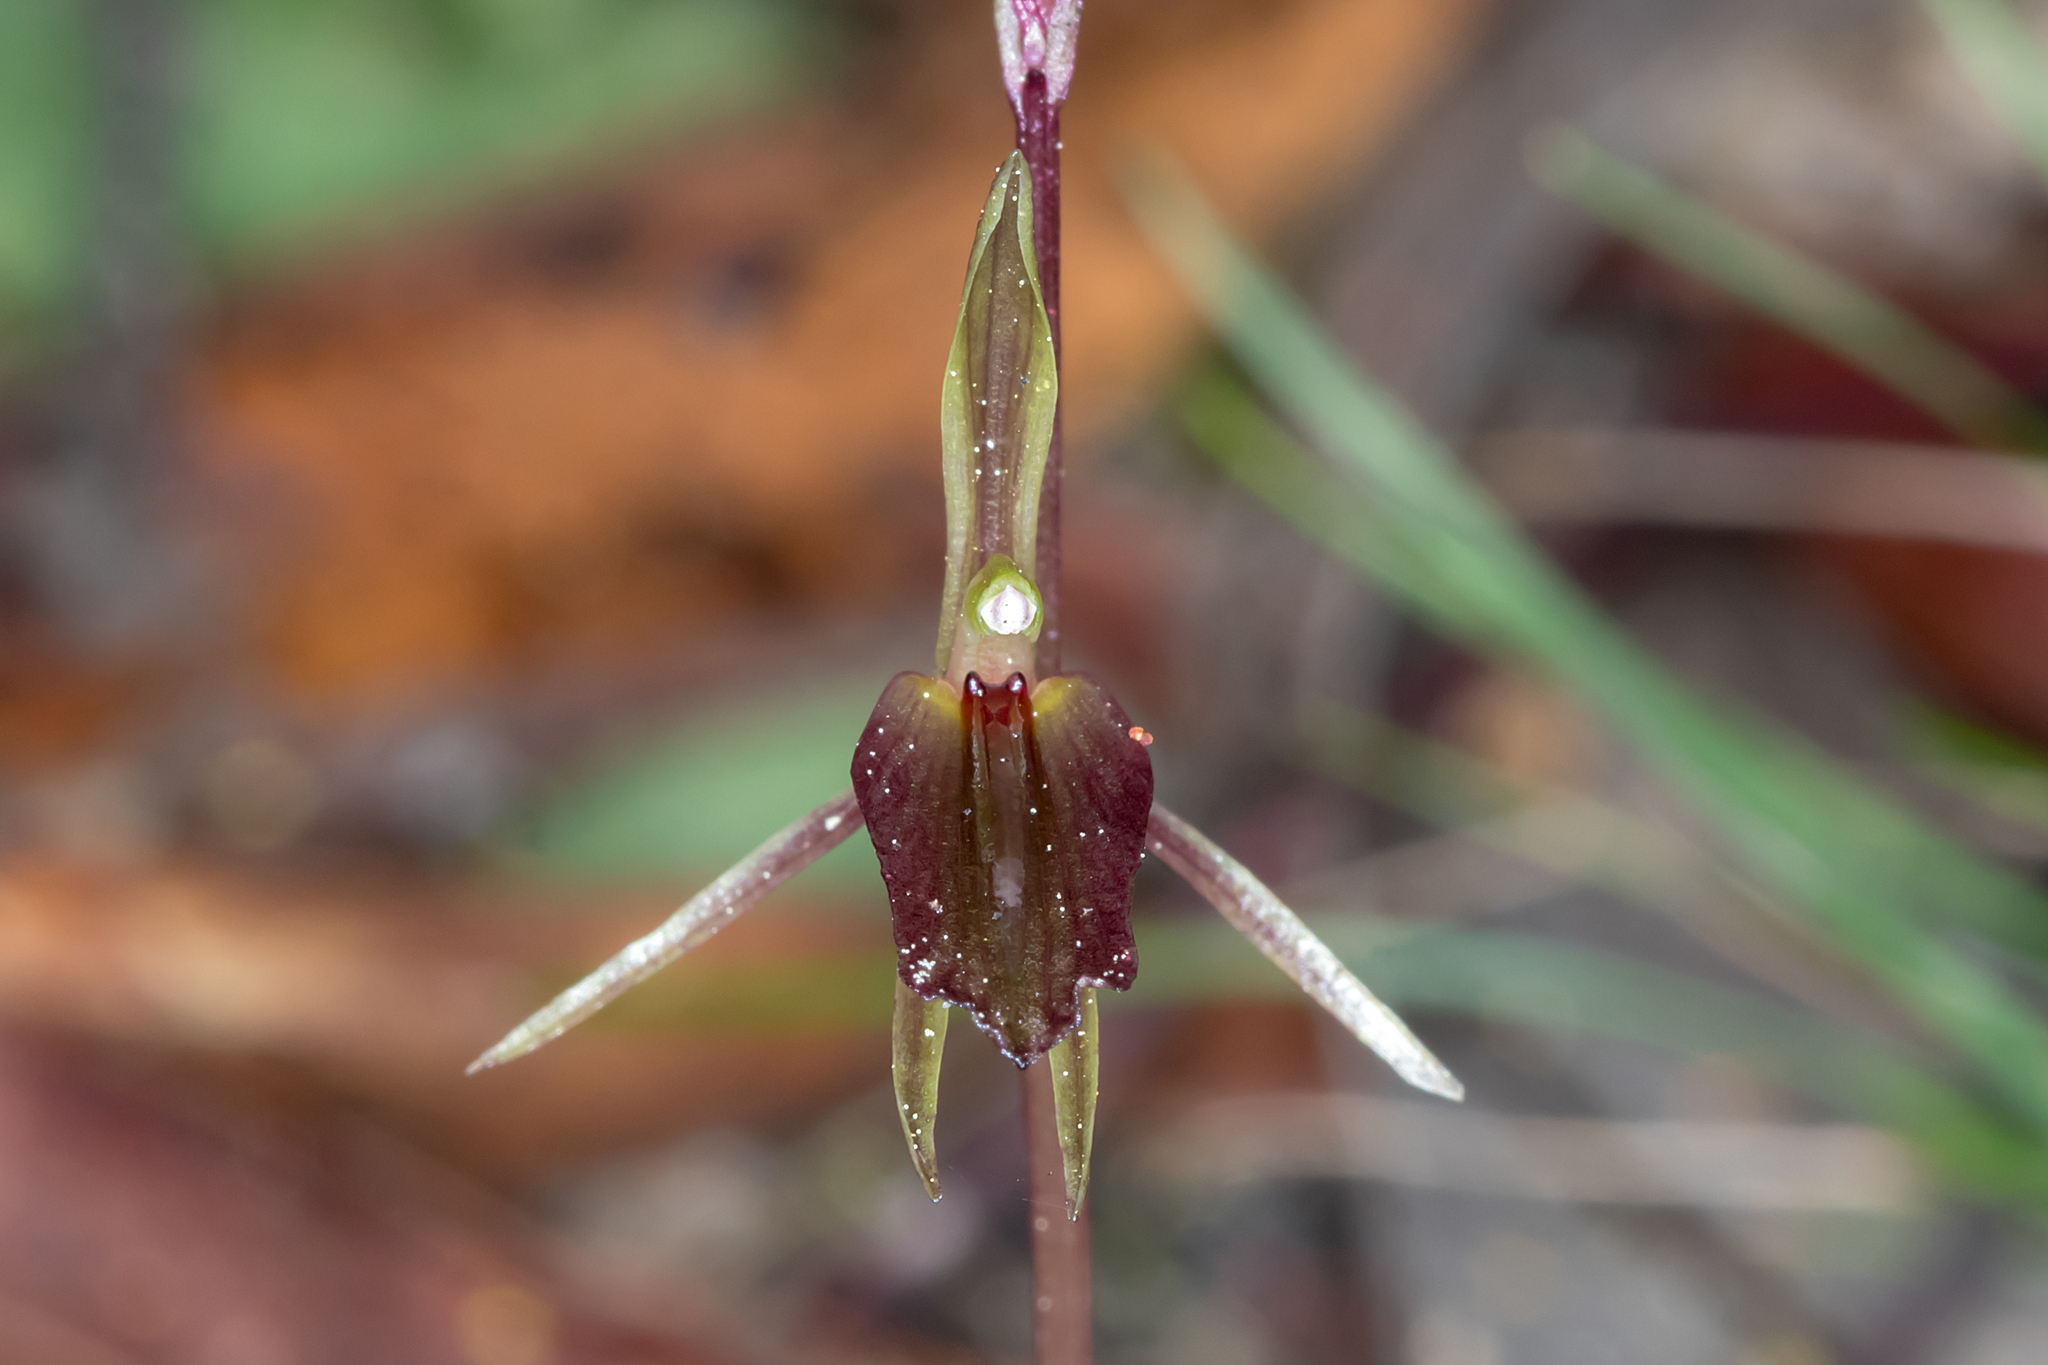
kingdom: Plantae
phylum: Tracheophyta
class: Liliopsida
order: Asparagales
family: Orchidaceae
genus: Cyrtostylis
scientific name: Cyrtostylis reniformis
